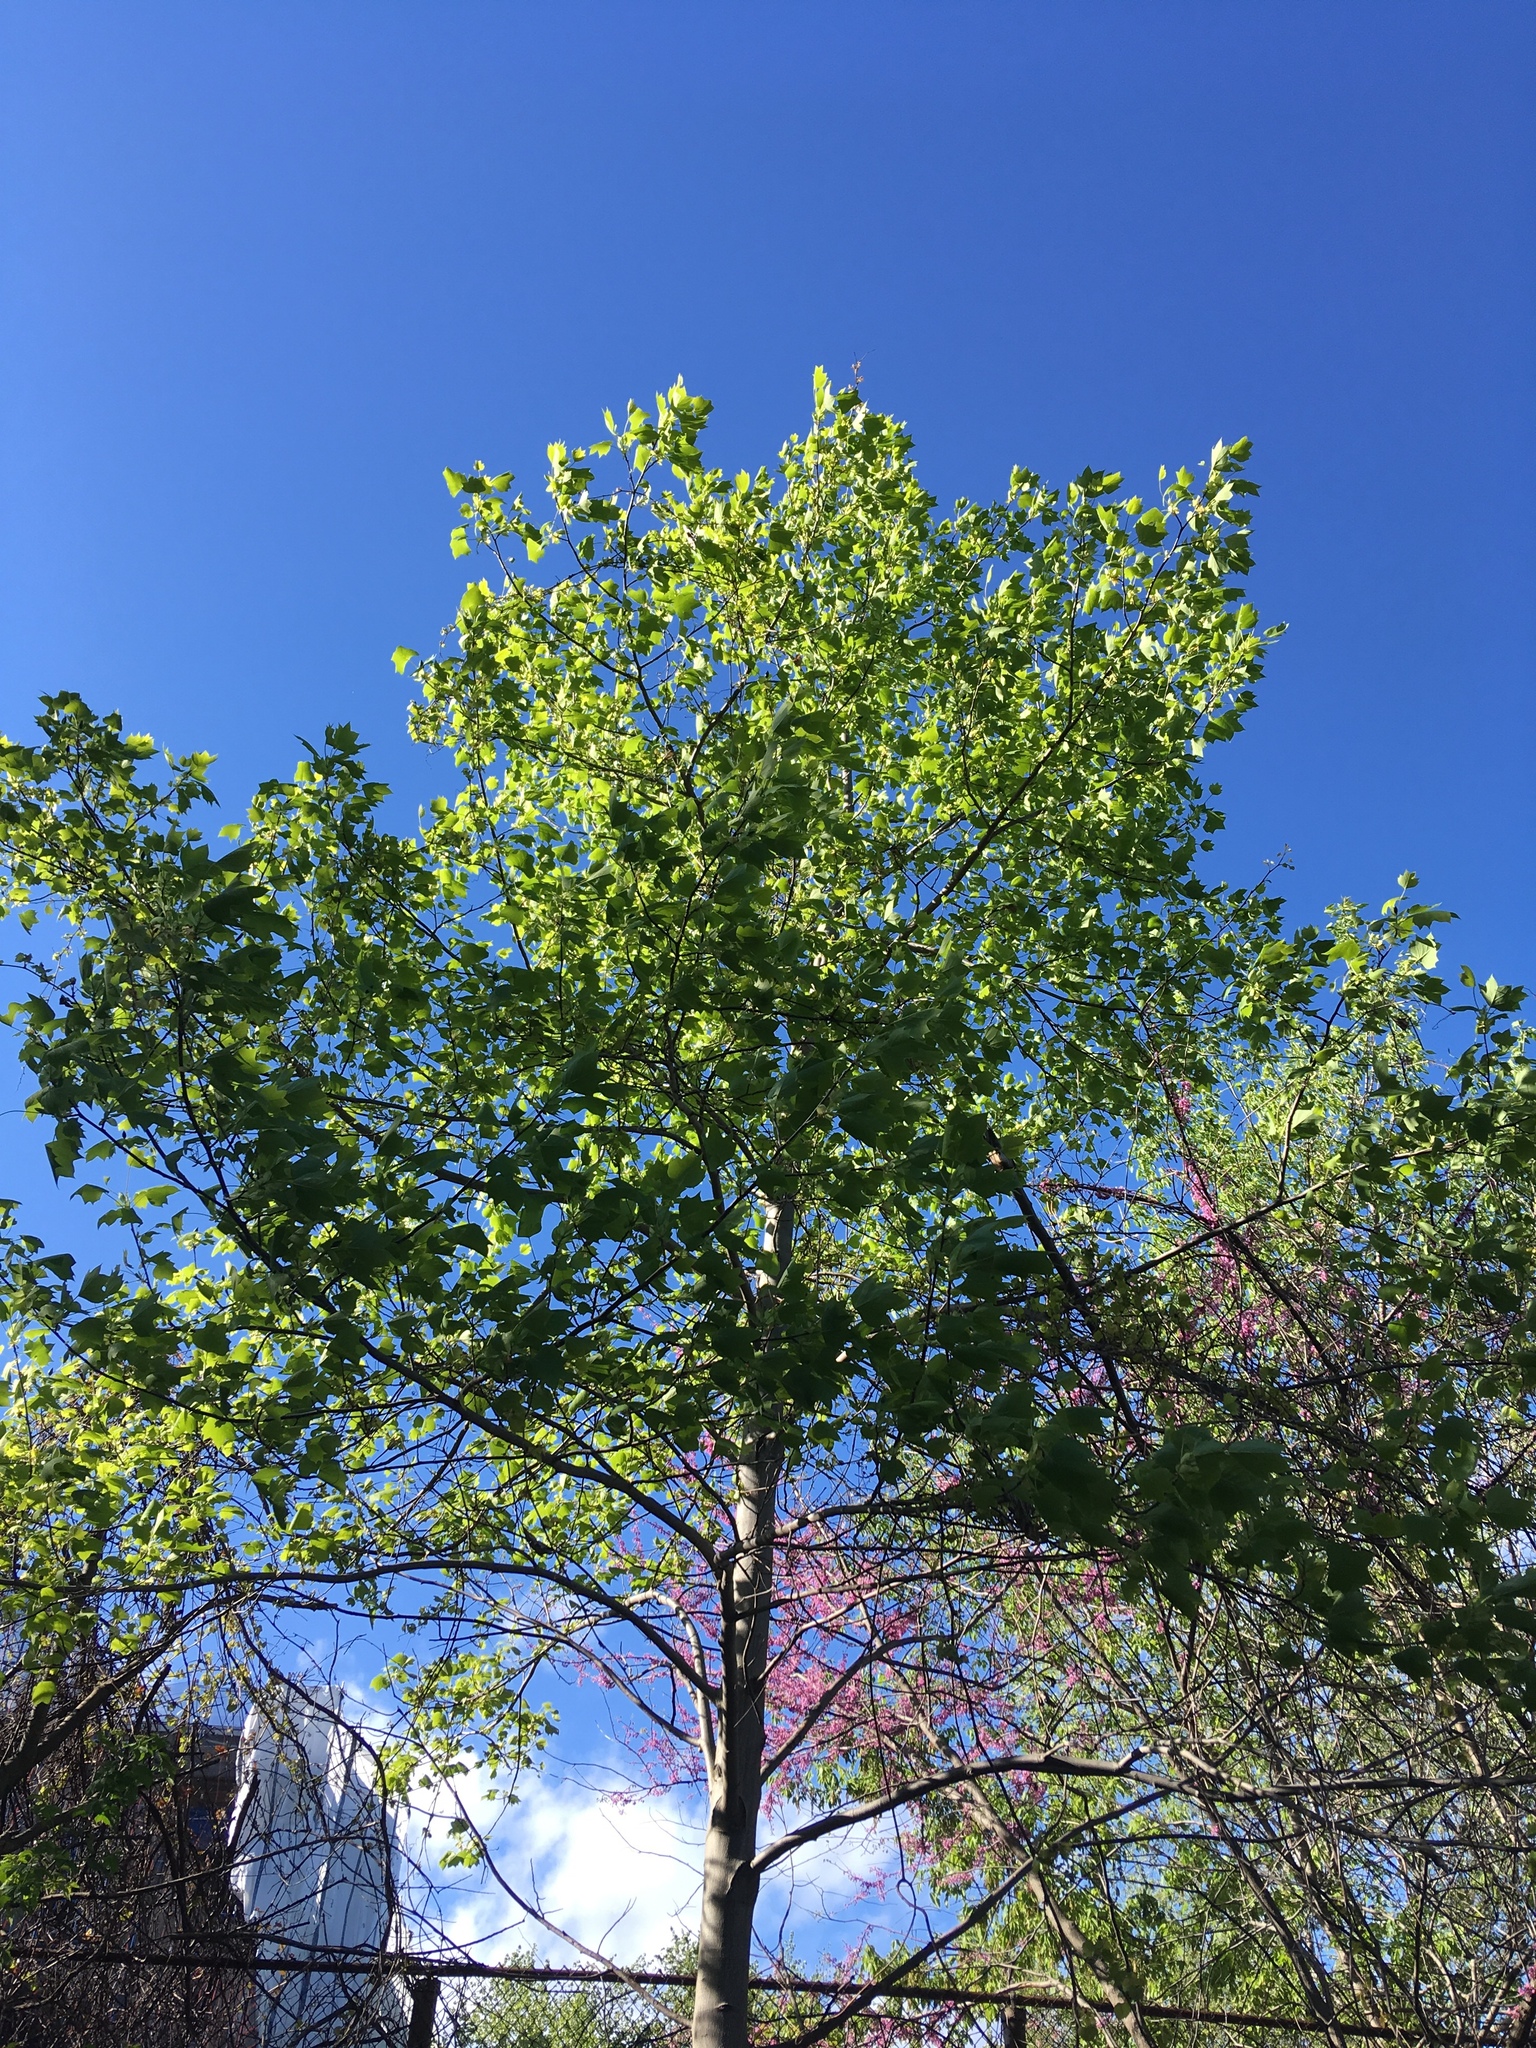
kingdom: Plantae
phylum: Tracheophyta
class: Magnoliopsida
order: Magnoliales
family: Magnoliaceae
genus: Liriodendron
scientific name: Liriodendron tulipifera
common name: Tulip tree
